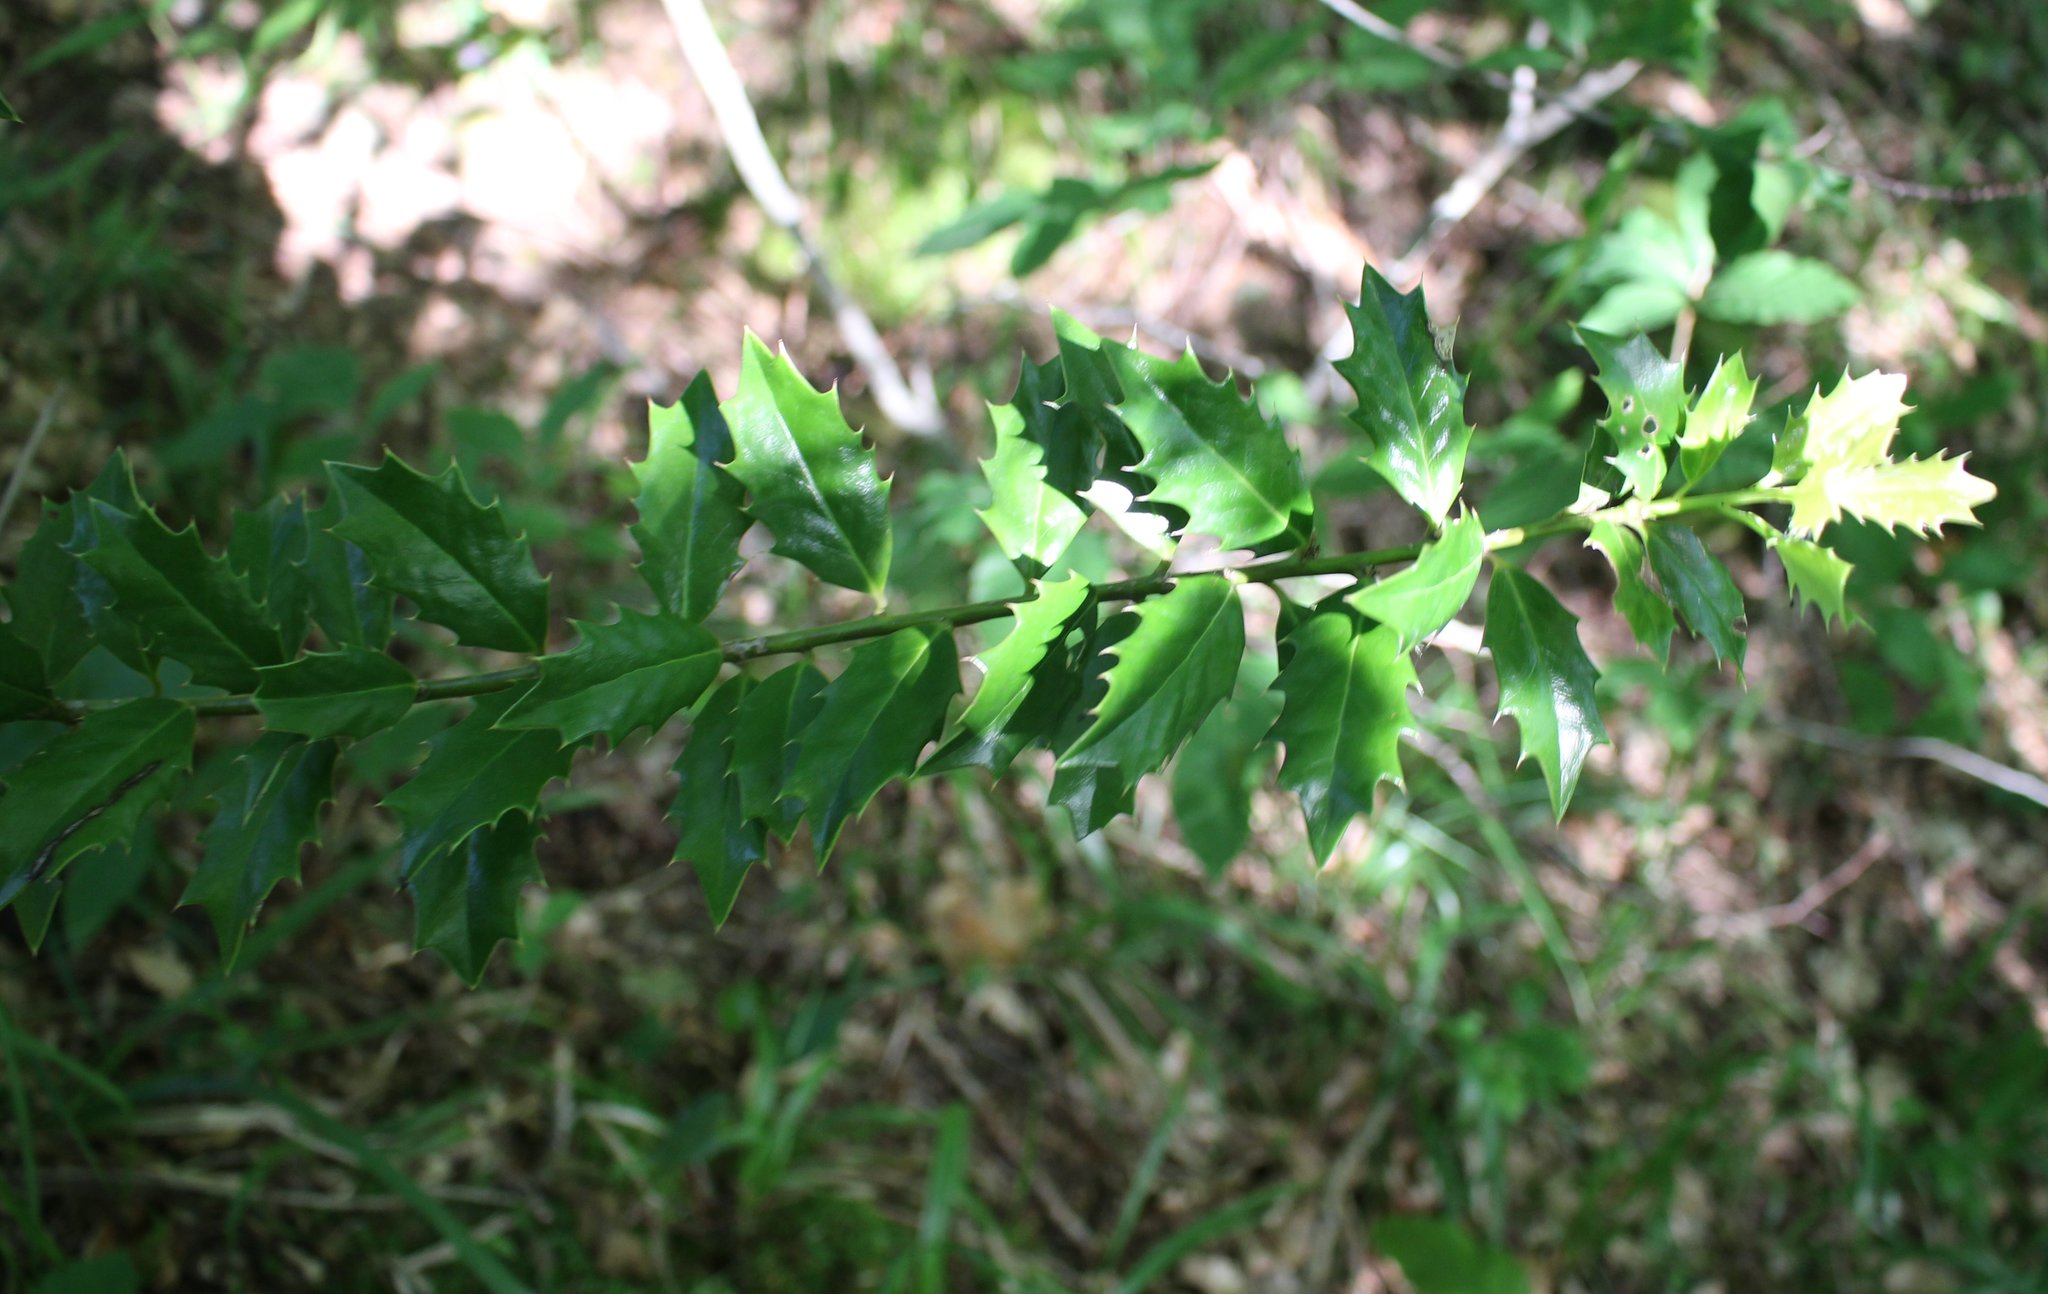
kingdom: Plantae
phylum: Tracheophyta
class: Magnoliopsida
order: Aquifoliales
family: Aquifoliaceae
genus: Ilex
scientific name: Ilex colchica
